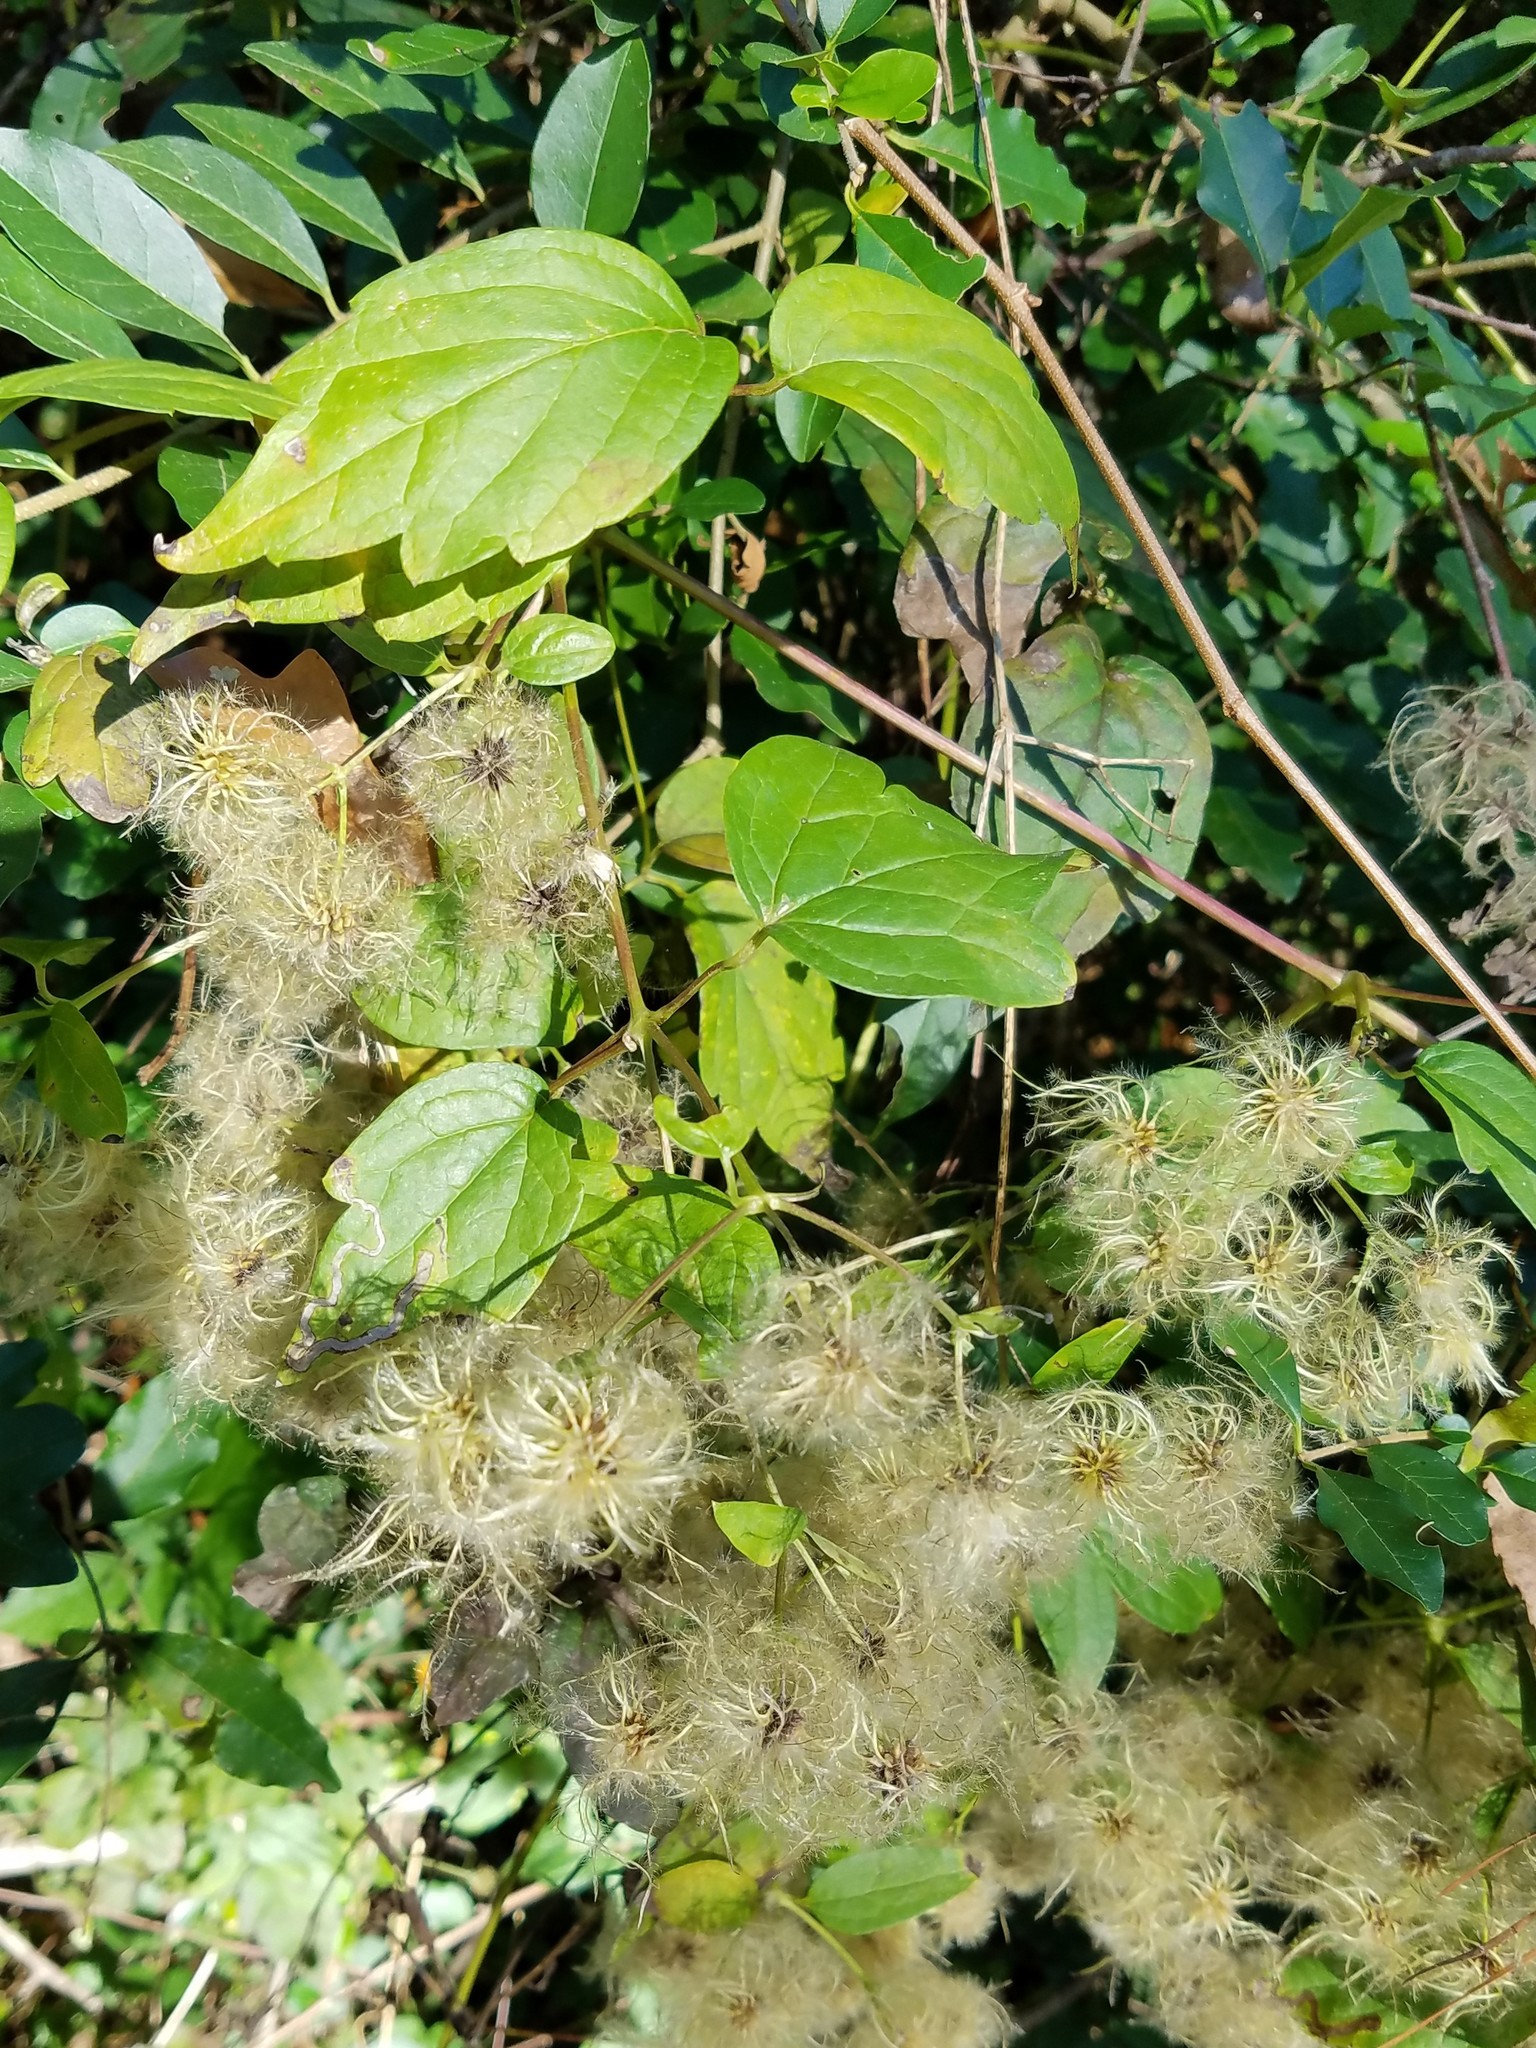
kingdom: Plantae
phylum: Tracheophyta
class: Magnoliopsida
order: Ranunculales
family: Ranunculaceae
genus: Clematis
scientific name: Clematis virginiana
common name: Virgin's-bower
